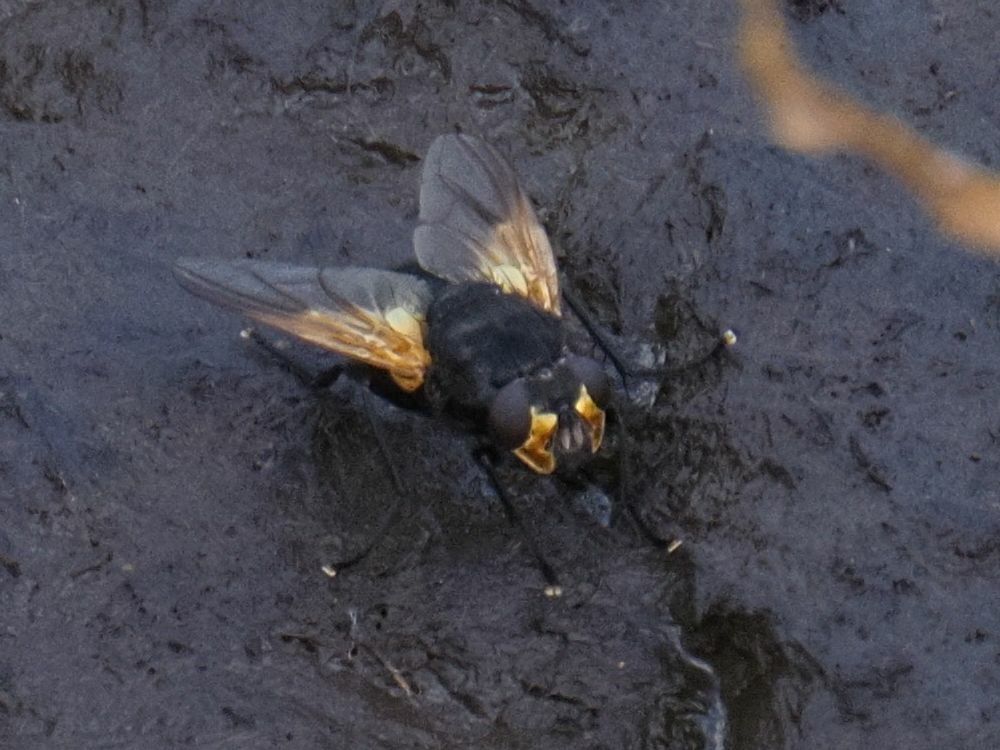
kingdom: Animalia
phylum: Arthropoda
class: Insecta
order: Diptera
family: Muscidae
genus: Mesembrina
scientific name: Mesembrina meridiana
